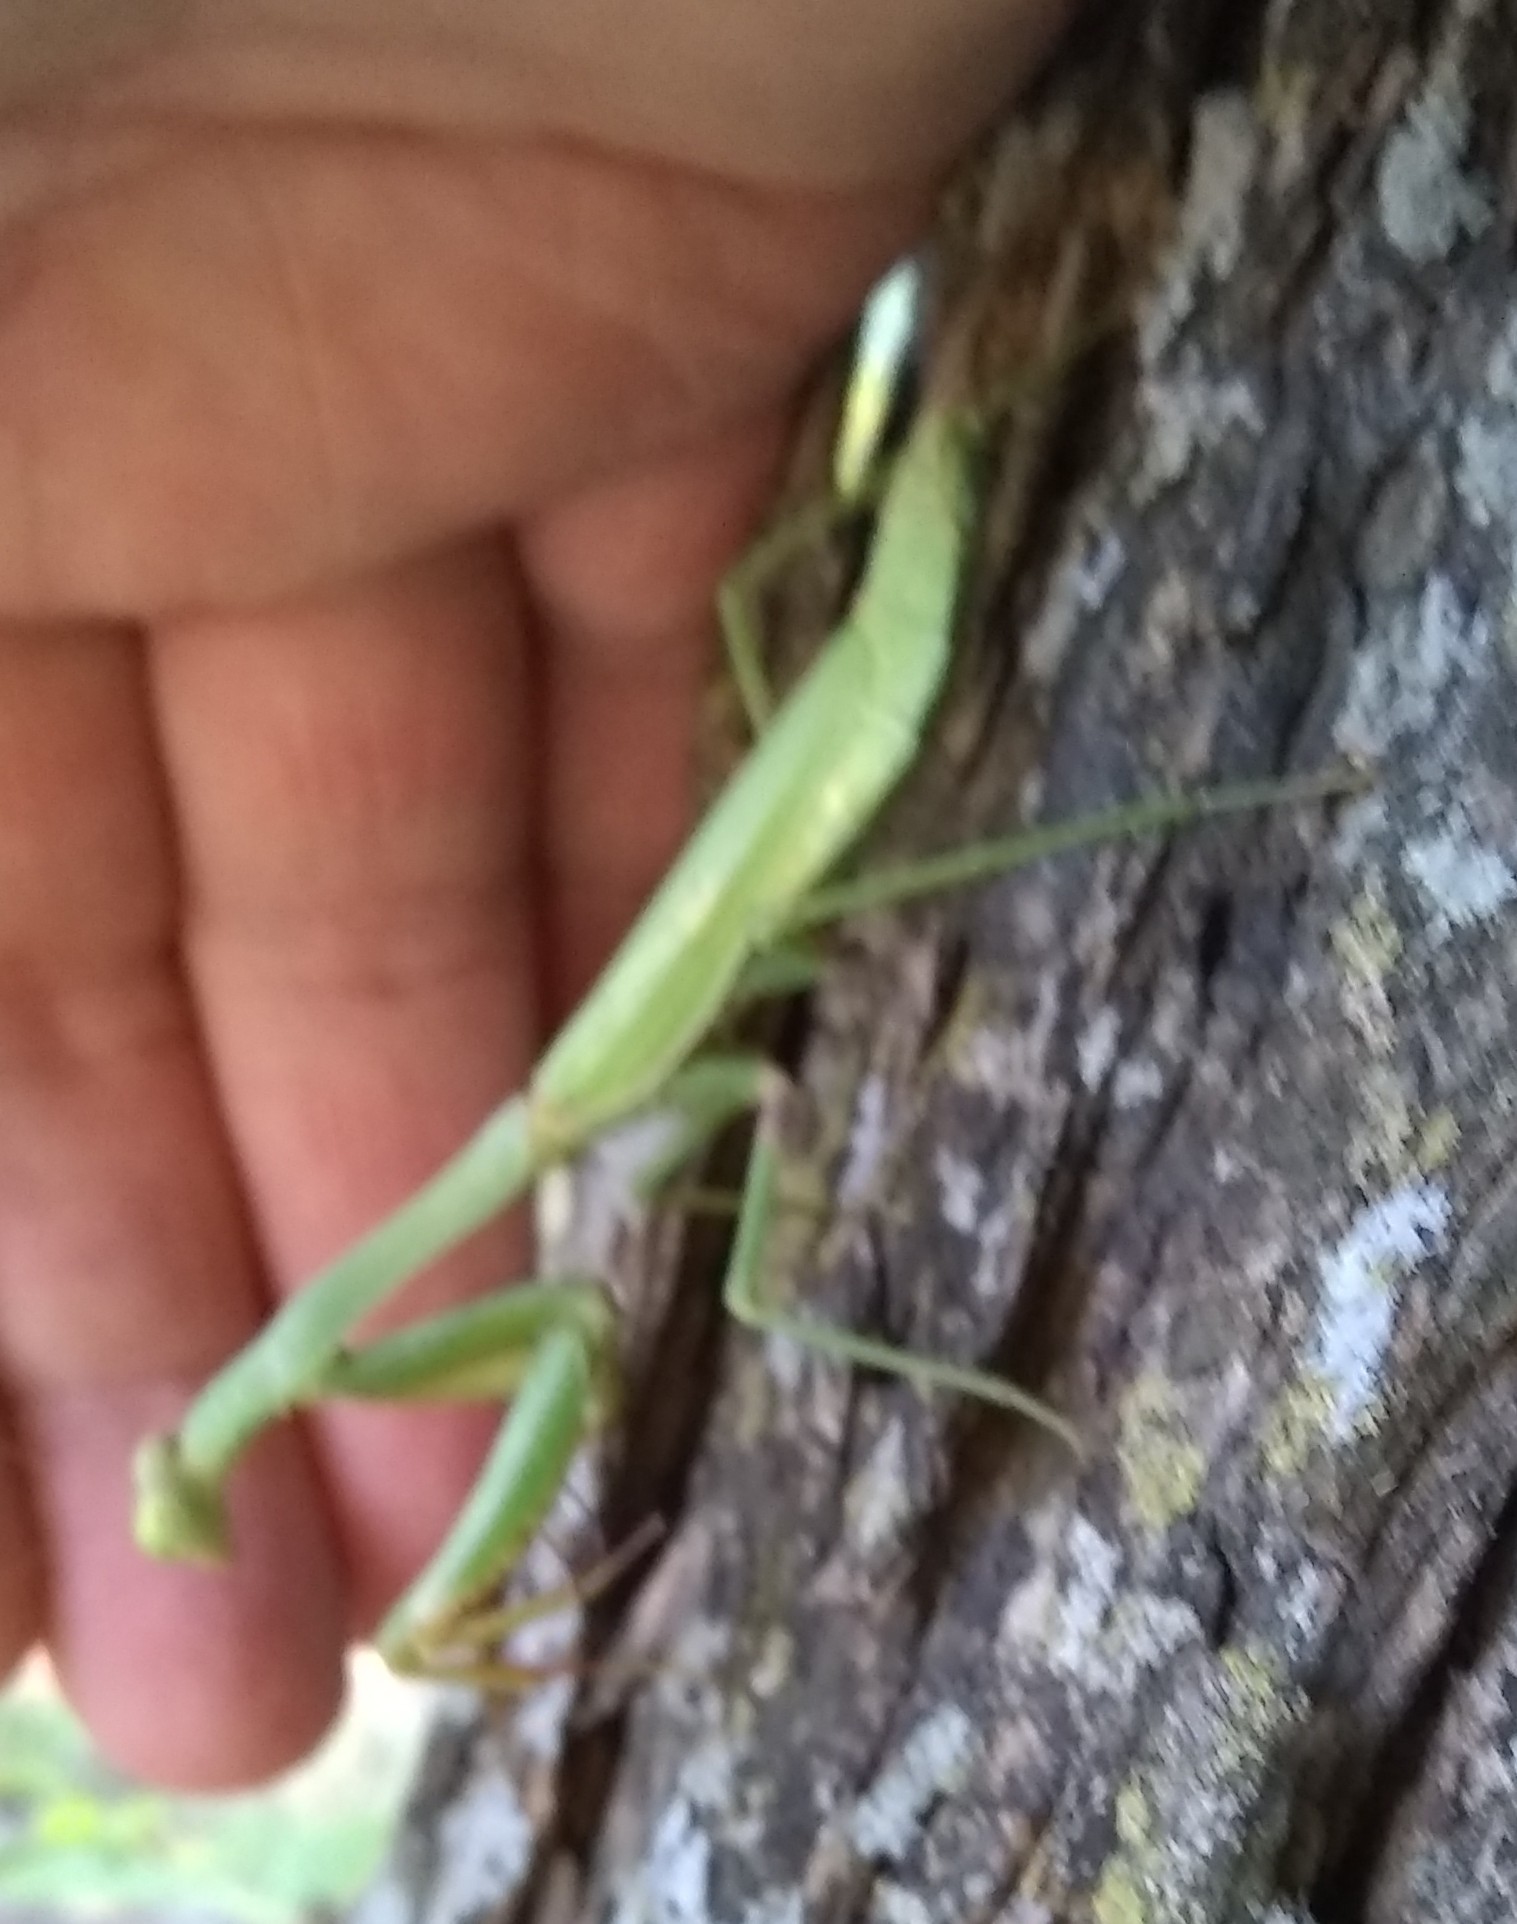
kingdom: Animalia
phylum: Arthropoda
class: Insecta
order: Mantodea
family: Mantidae
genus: Stagmomantis
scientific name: Stagmomantis carolina
